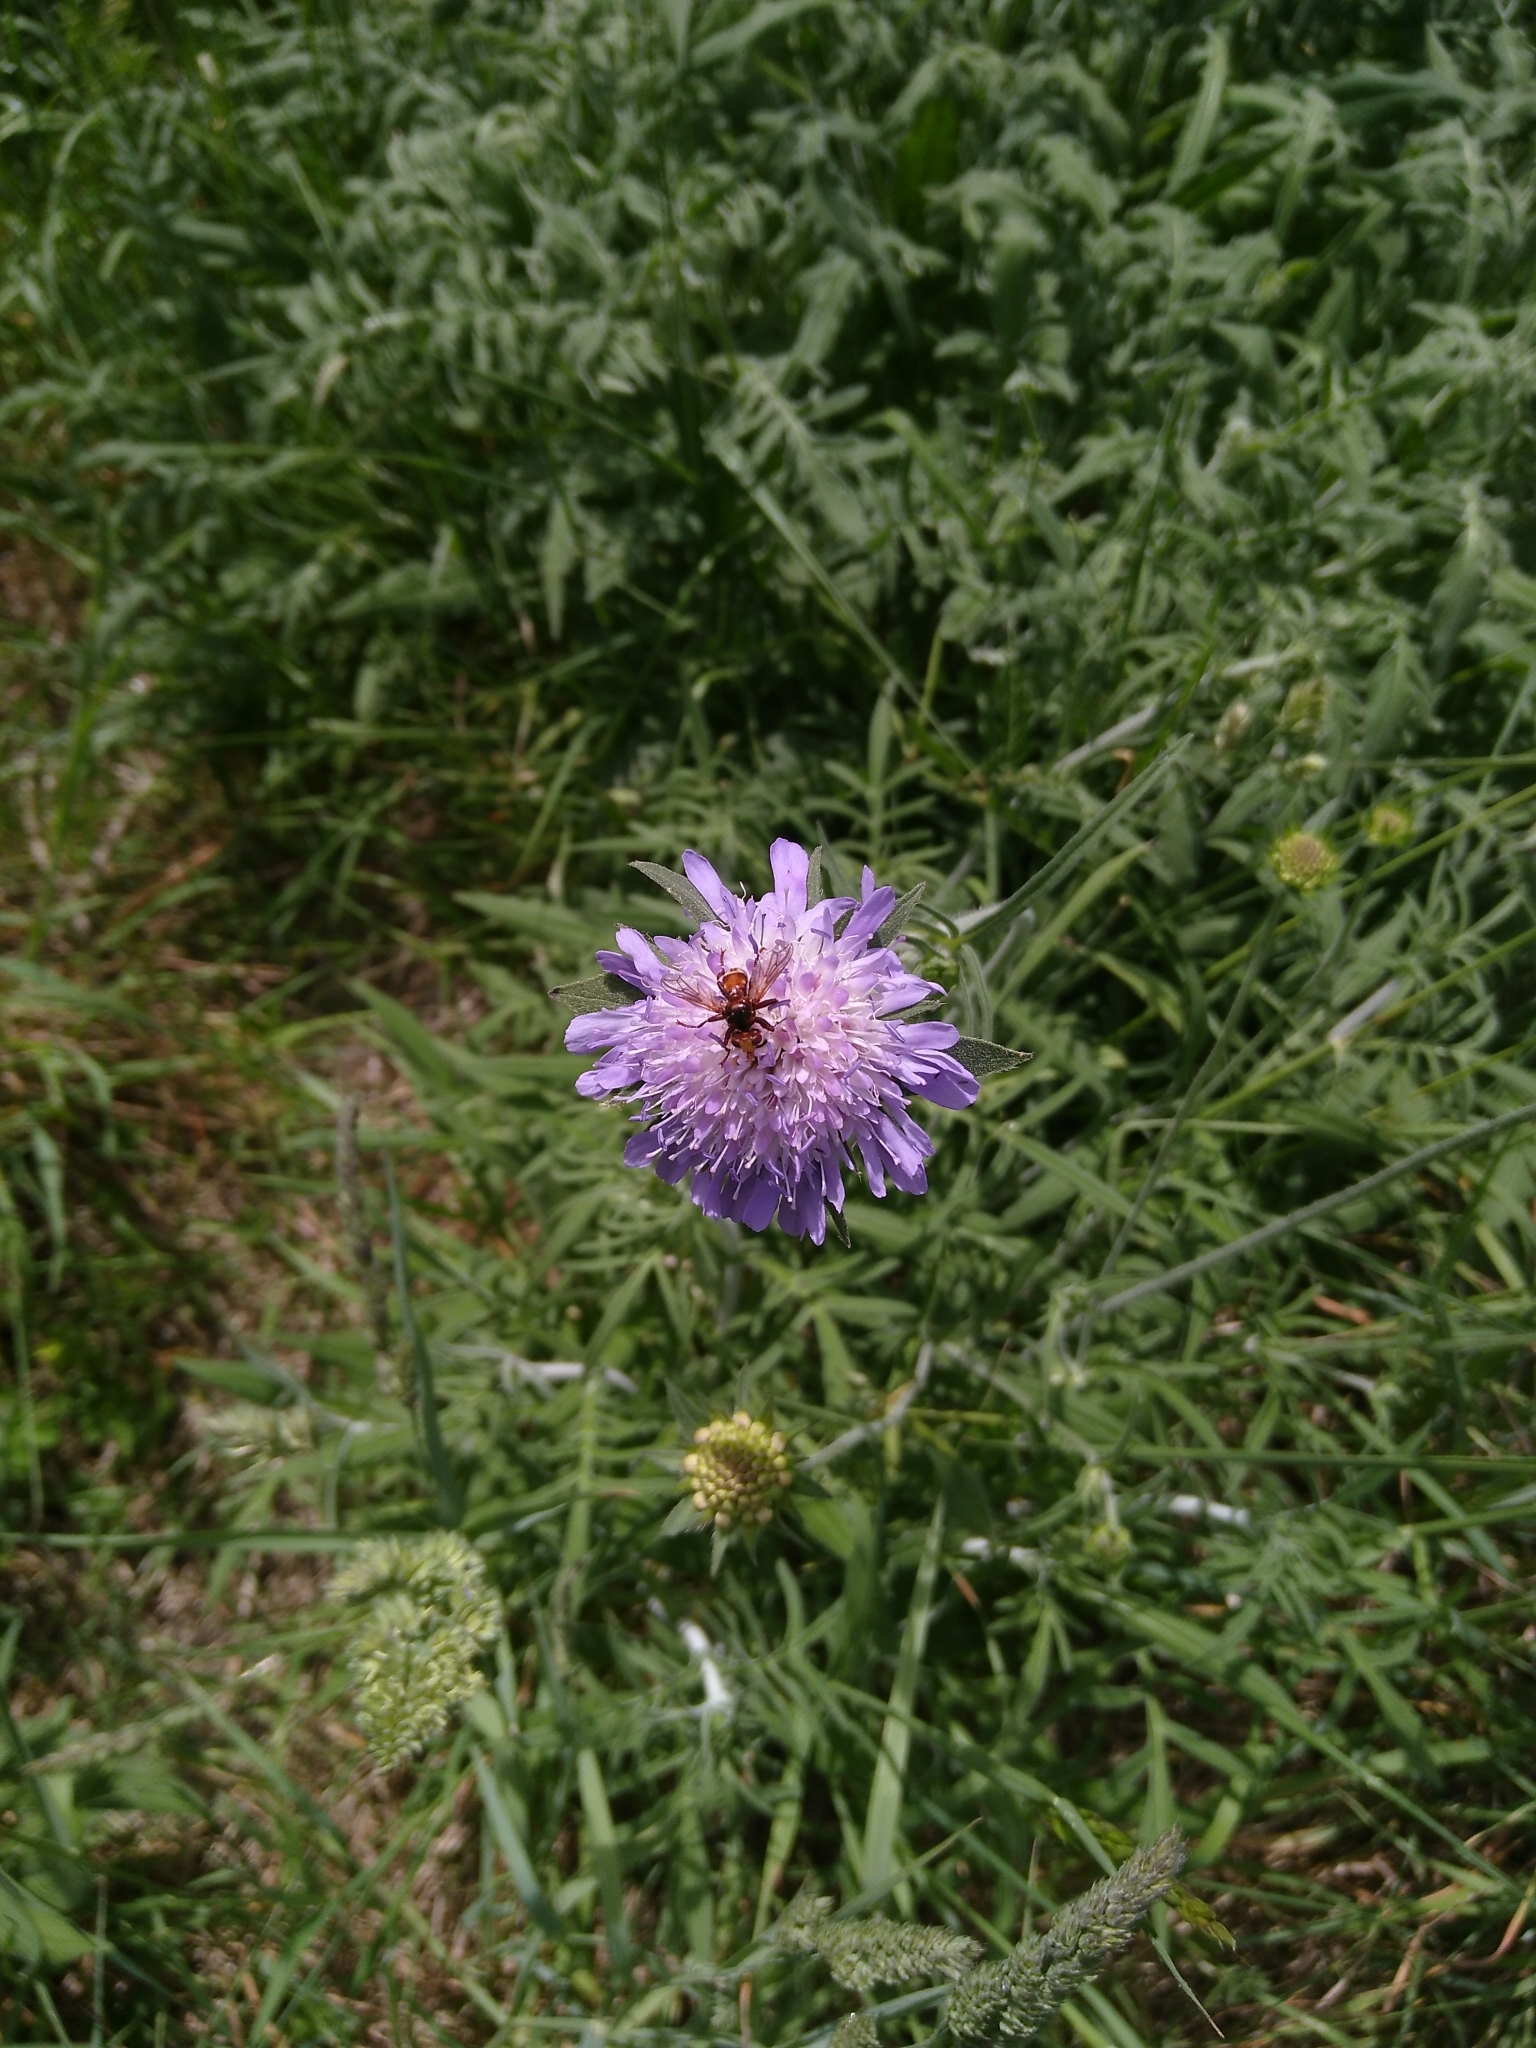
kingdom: Animalia
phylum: Arthropoda
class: Insecta
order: Diptera
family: Conopidae
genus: Sicus
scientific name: Sicus ferrugineus
